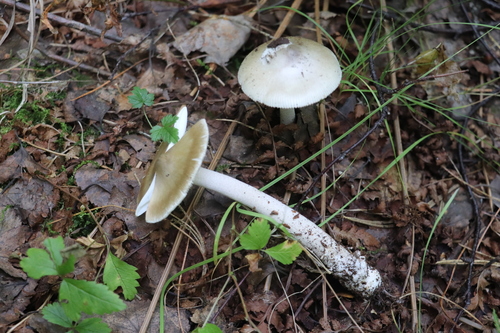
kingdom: Fungi
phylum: Basidiomycota
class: Agaricomycetes
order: Agaricales
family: Amanitaceae
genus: Amanita
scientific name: Amanita contui
